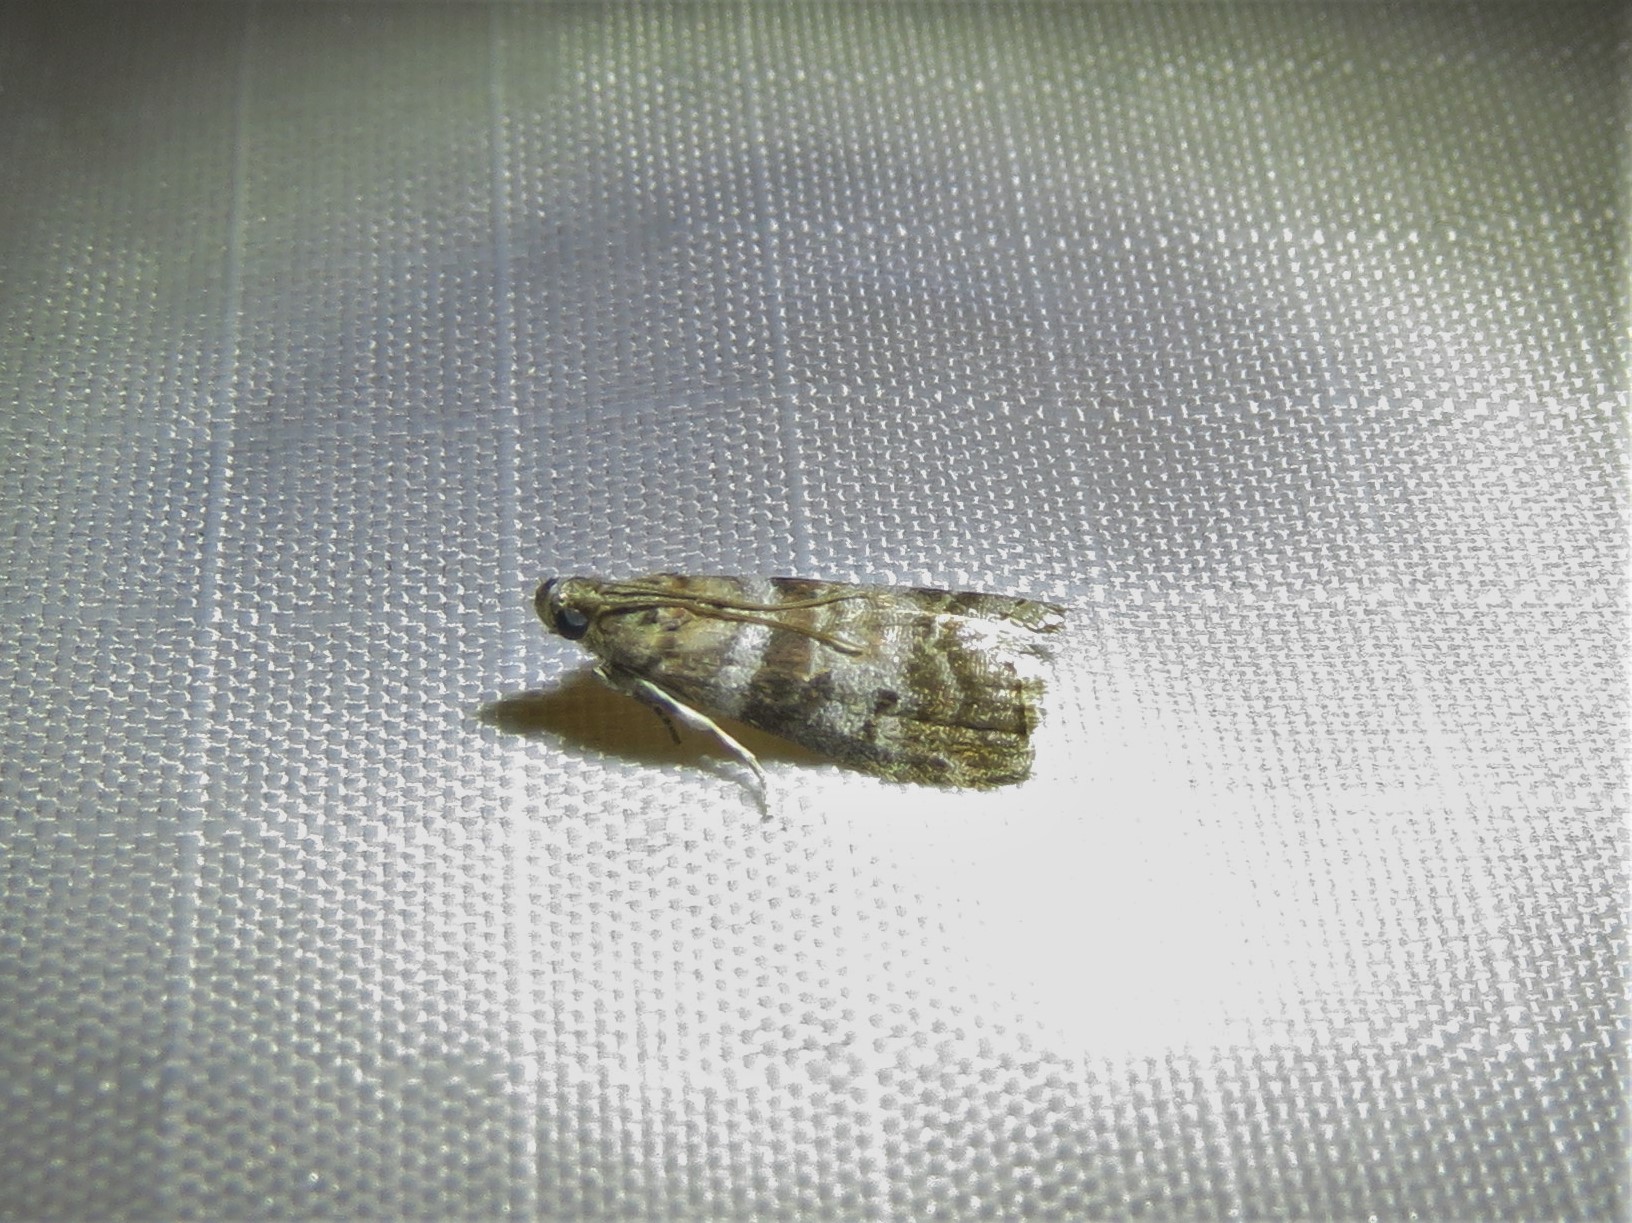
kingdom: Animalia
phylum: Arthropoda
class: Insecta
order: Lepidoptera
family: Pyralidae
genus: Sciota
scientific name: Sciota uvinella
